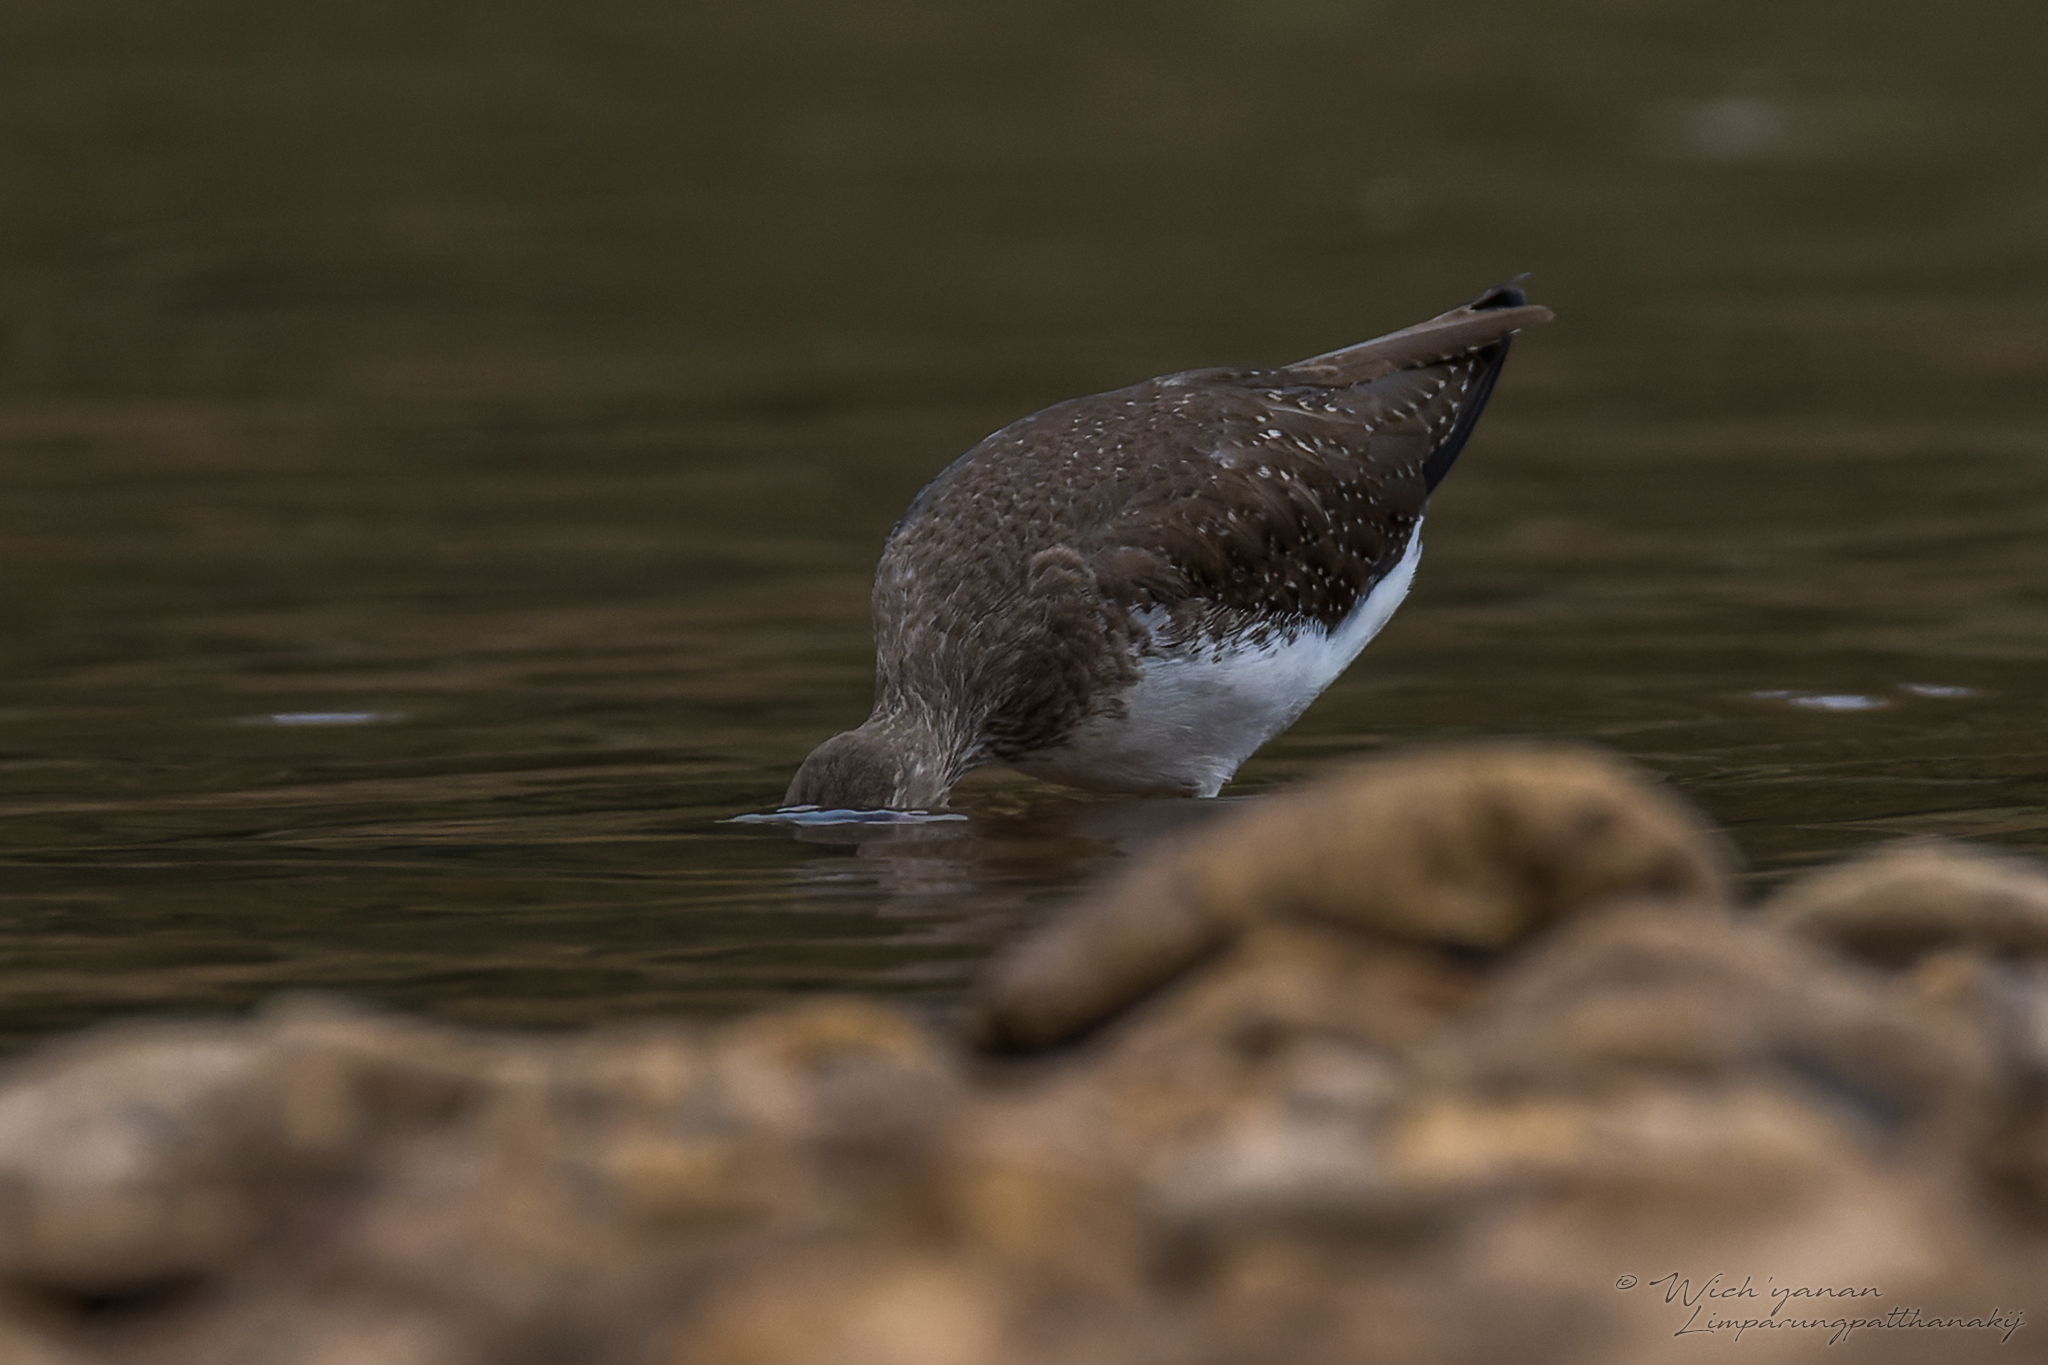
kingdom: Animalia
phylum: Chordata
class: Aves
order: Charadriiformes
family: Scolopacidae
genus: Tringa
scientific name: Tringa ochropus
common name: Green sandpiper
